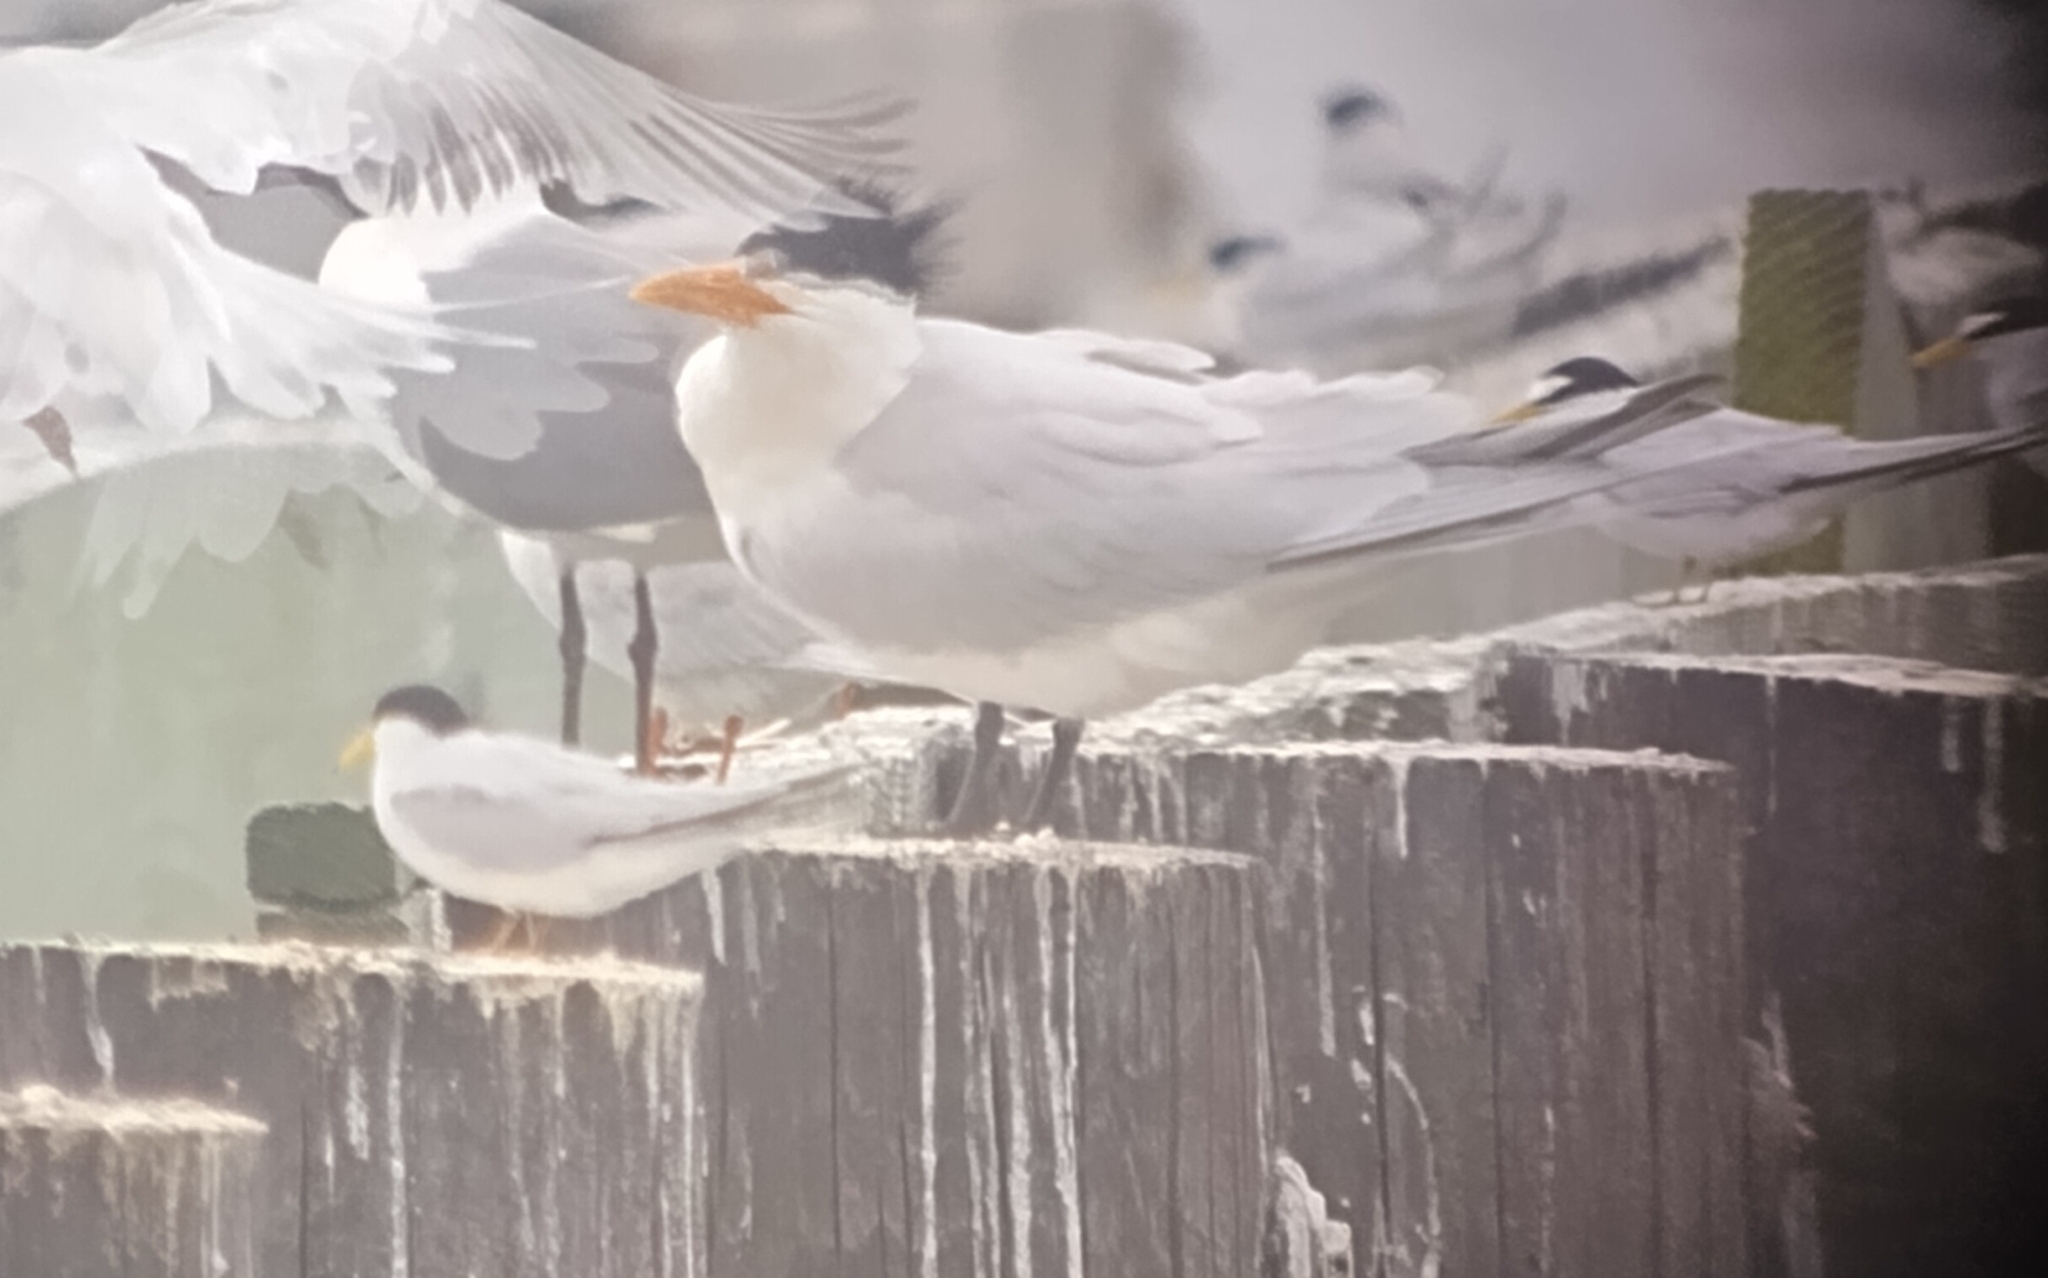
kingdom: Animalia
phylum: Chordata
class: Aves
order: Charadriiformes
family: Laridae
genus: Thalasseus
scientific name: Thalasseus maximus
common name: Royal tern
